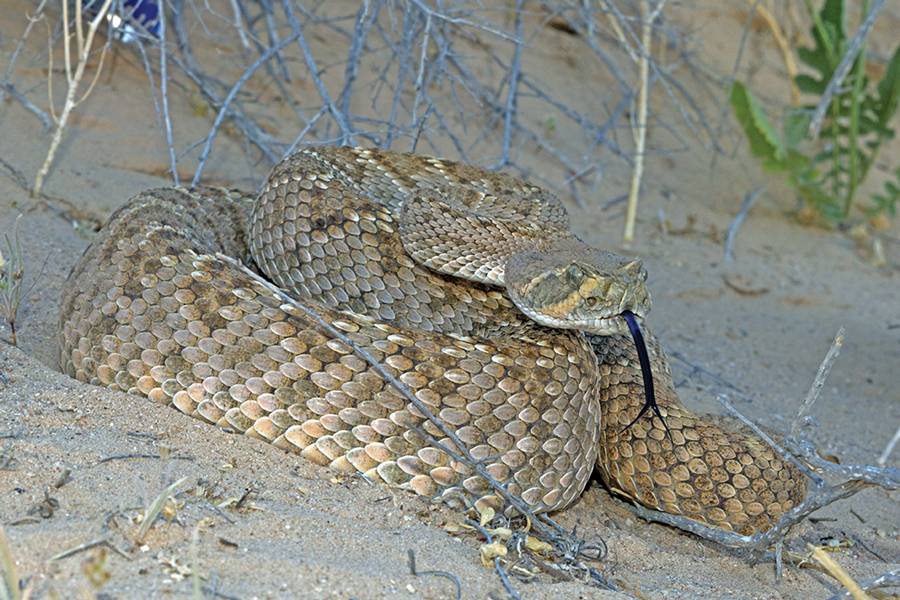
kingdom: Animalia
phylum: Chordata
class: Squamata
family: Viperidae
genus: Crotalus
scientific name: Crotalus atrox
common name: Western diamond-backed rattlesnake
